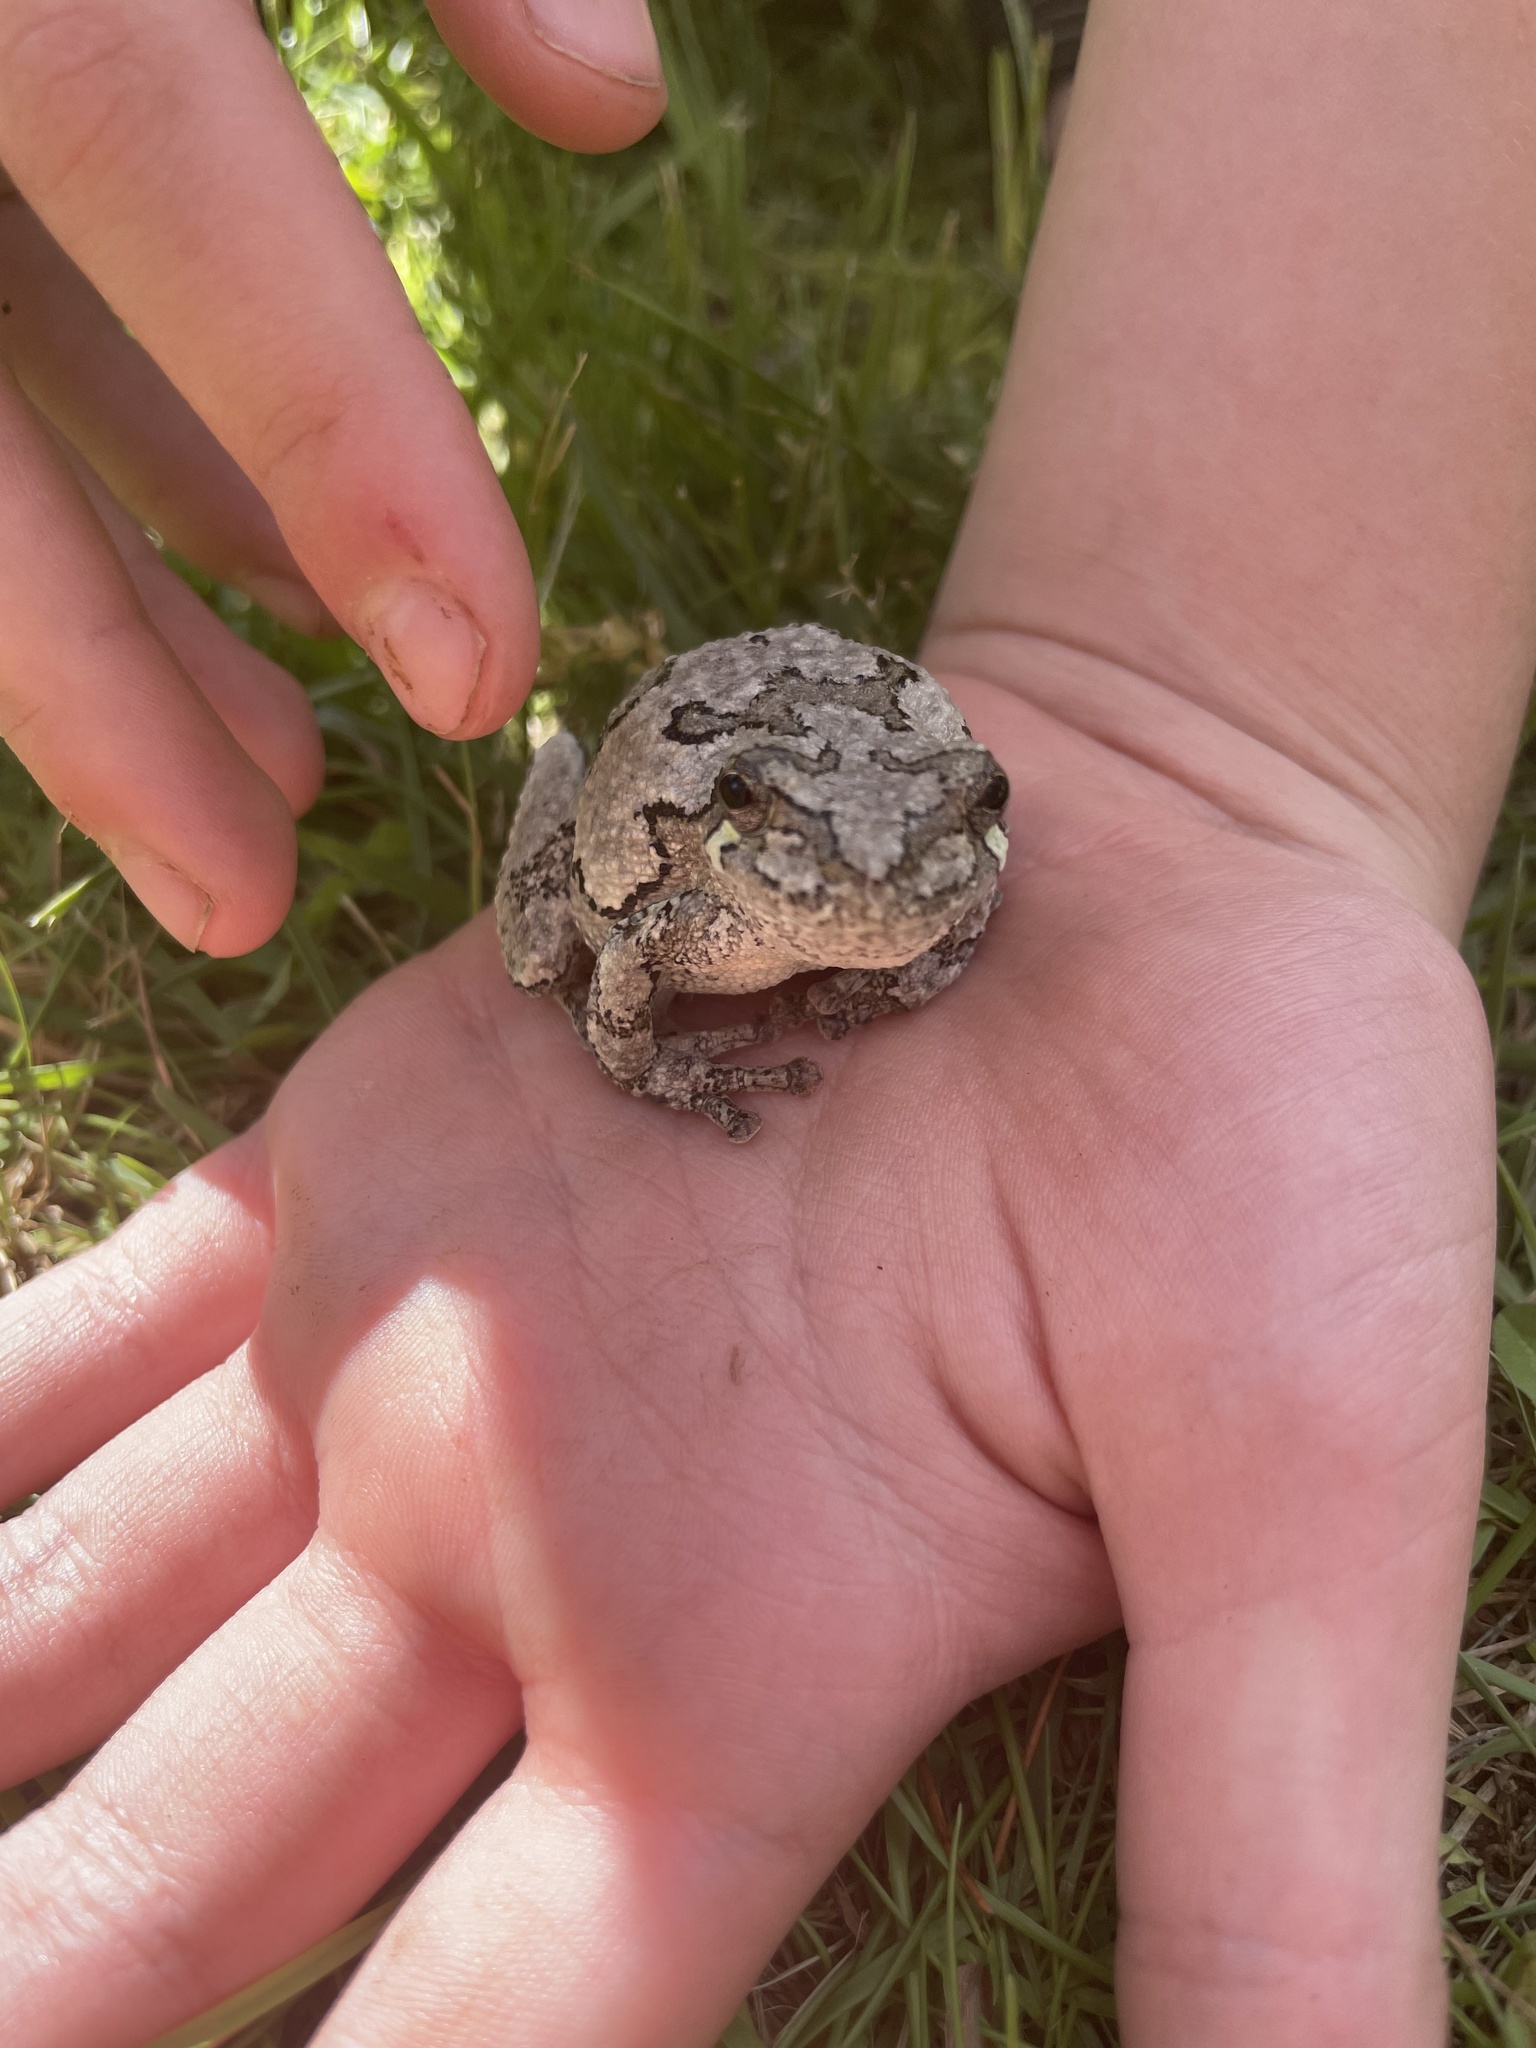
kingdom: Animalia
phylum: Chordata
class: Amphibia
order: Anura
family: Hylidae
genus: Dryophytes
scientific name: Dryophytes versicolor
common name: Gray treefrog
